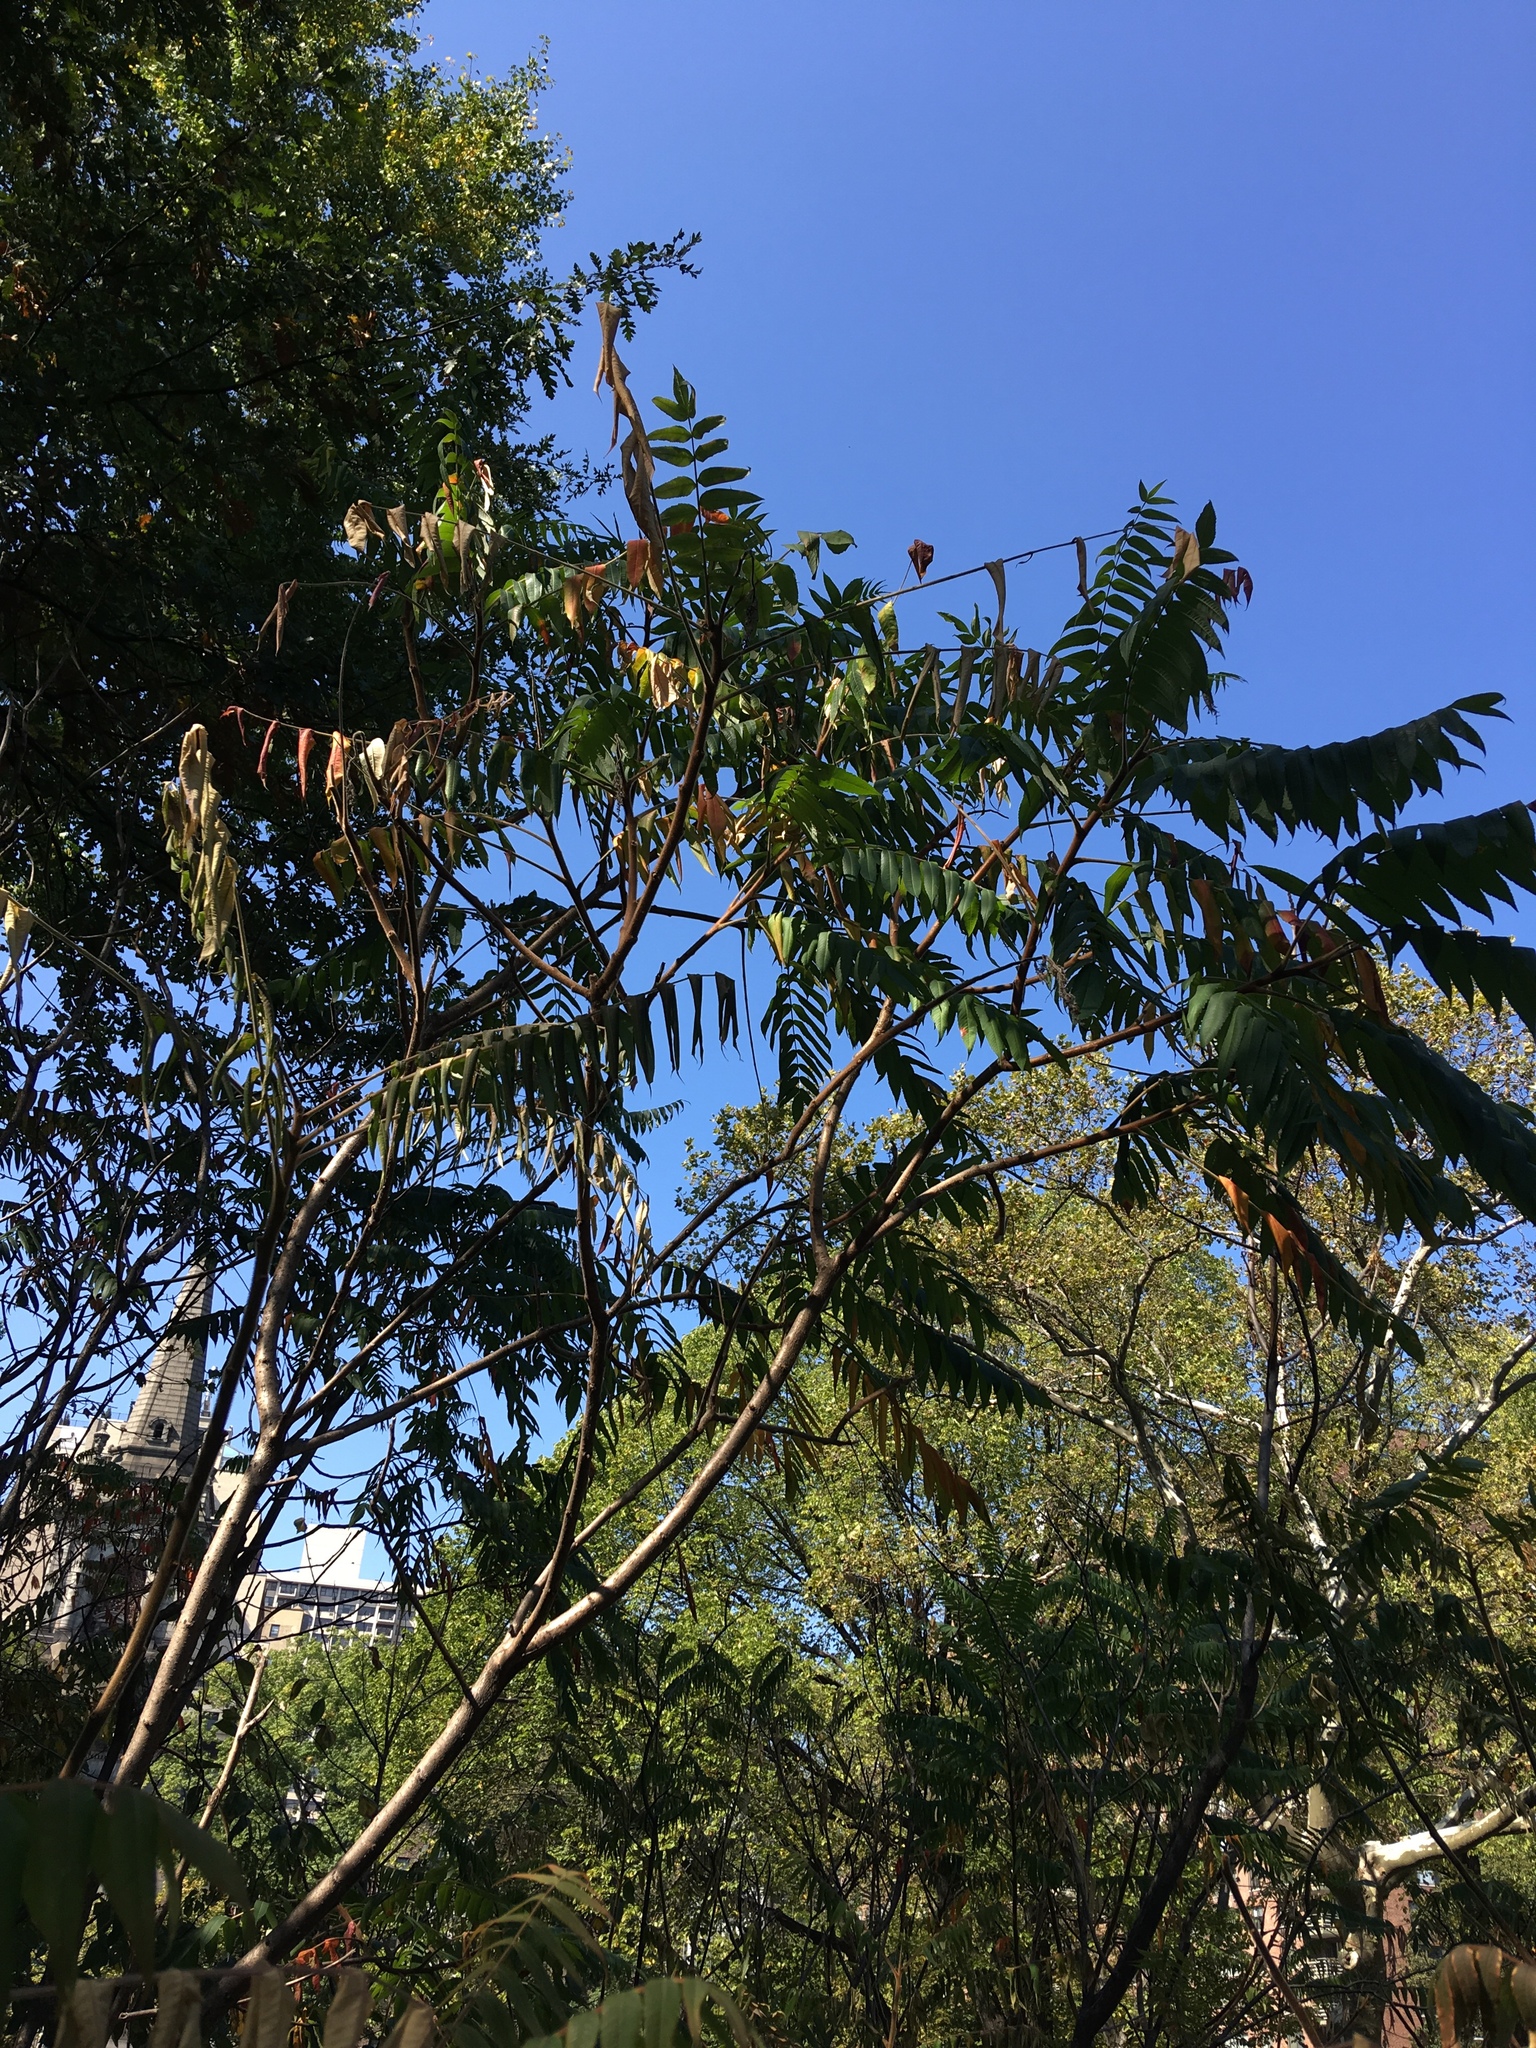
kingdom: Plantae
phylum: Tracheophyta
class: Magnoliopsida
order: Sapindales
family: Anacardiaceae
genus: Rhus
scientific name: Rhus typhina
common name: Staghorn sumac
